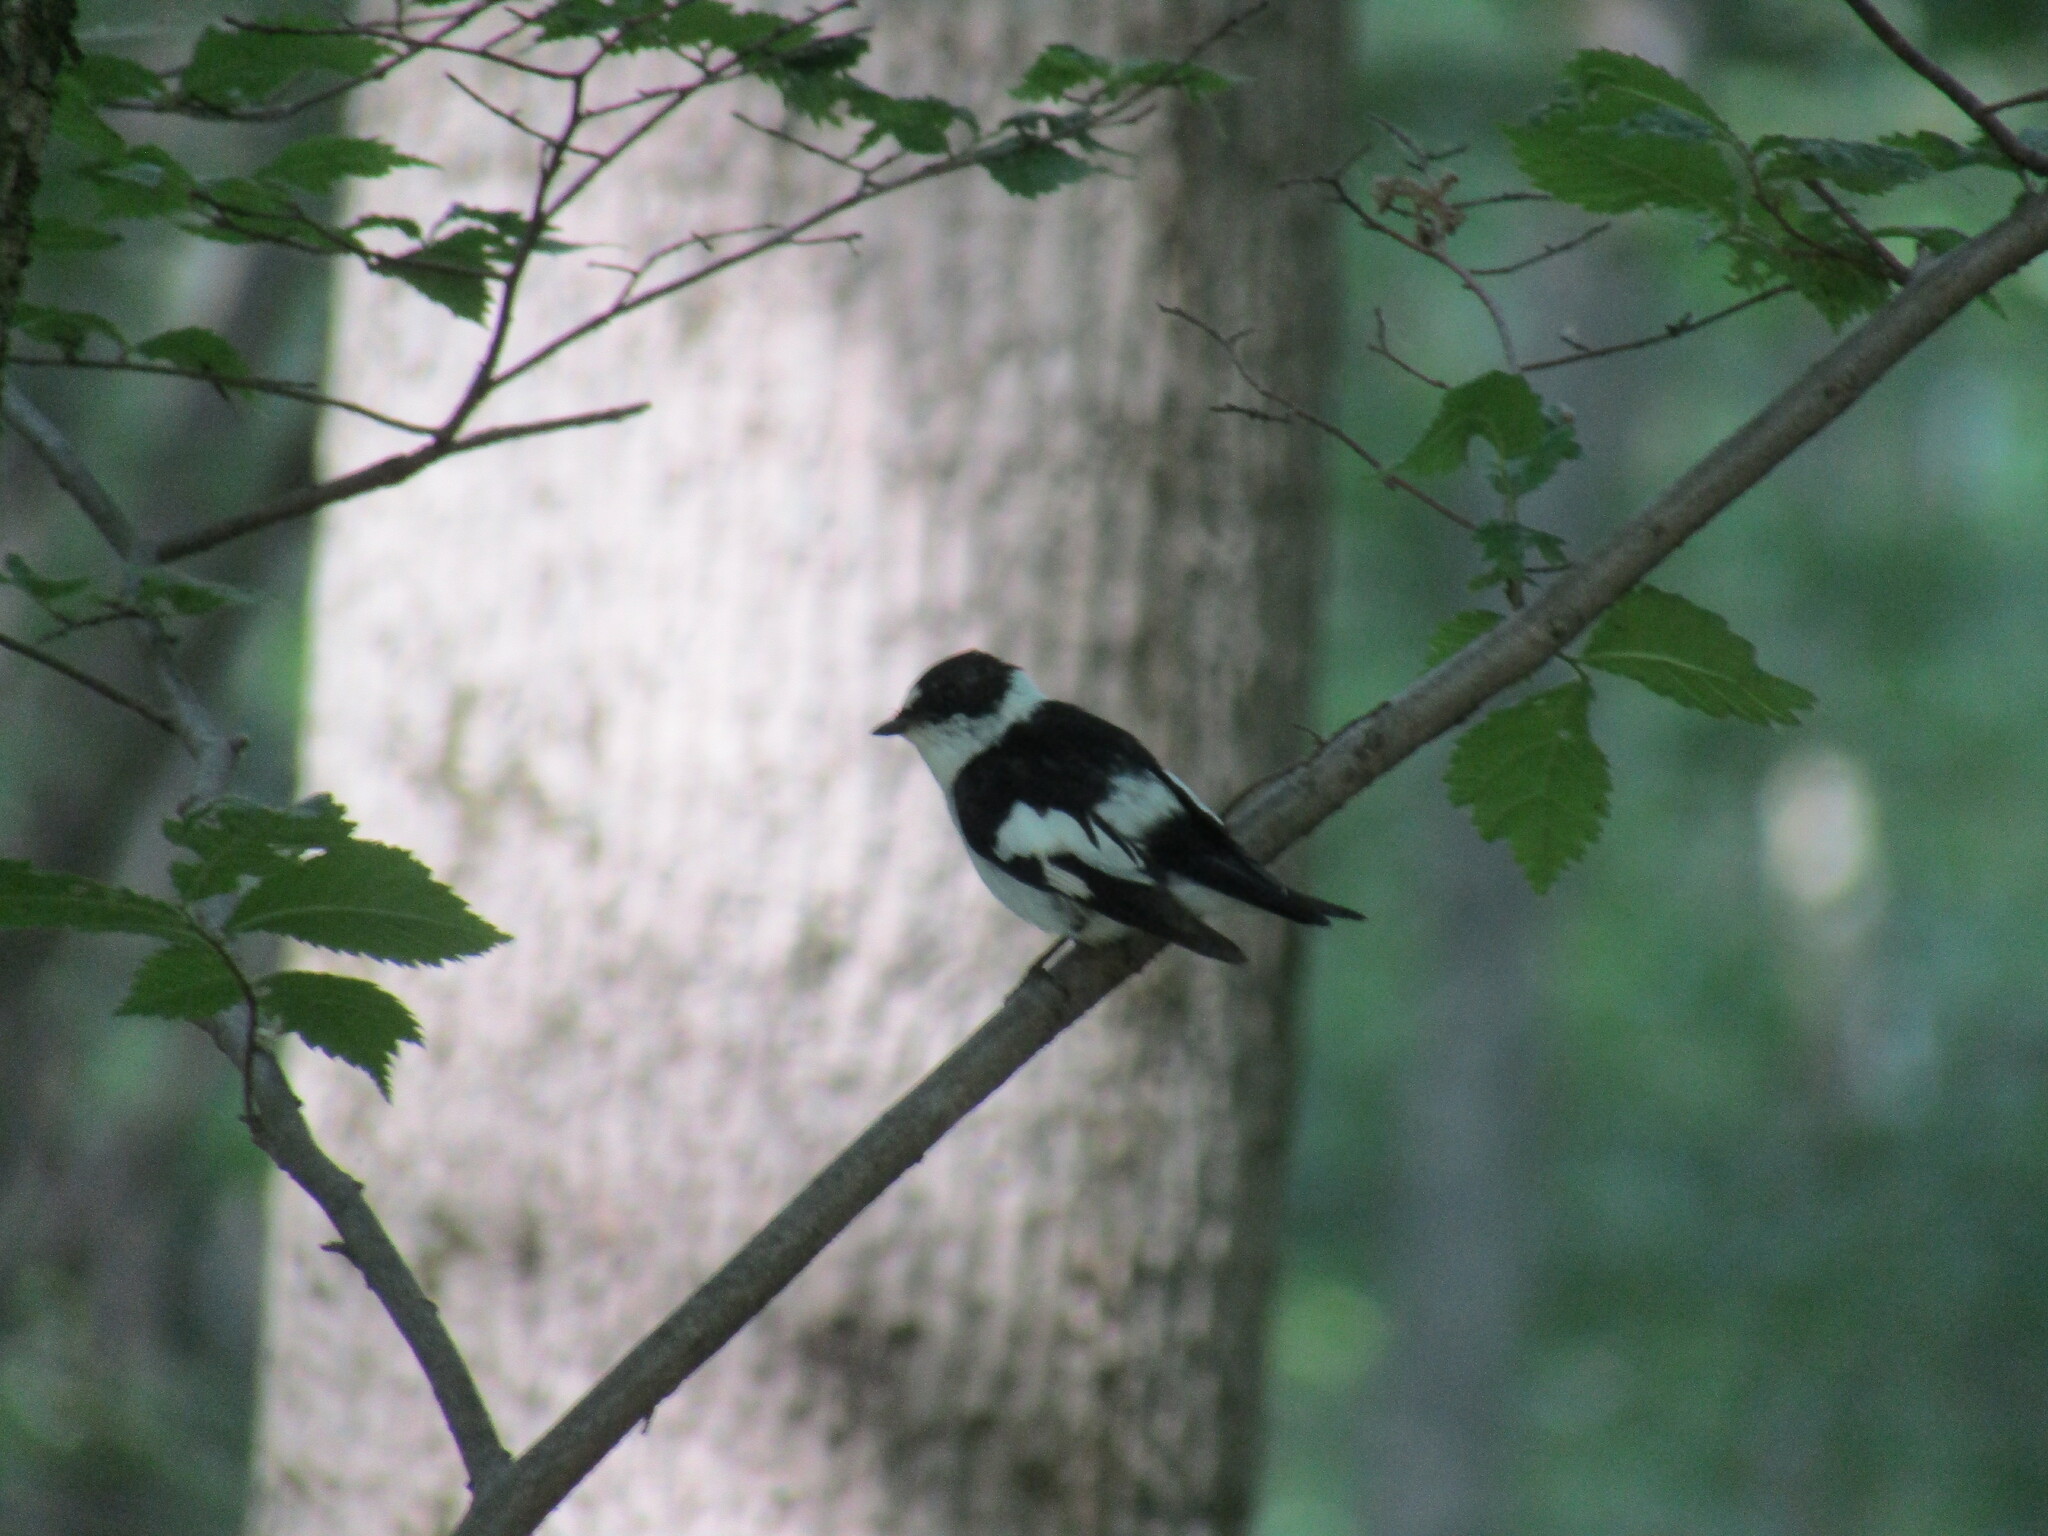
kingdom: Animalia
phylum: Chordata
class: Aves
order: Passeriformes
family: Muscicapidae
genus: Ficedula
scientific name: Ficedula albicollis
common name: Collared flycatcher
